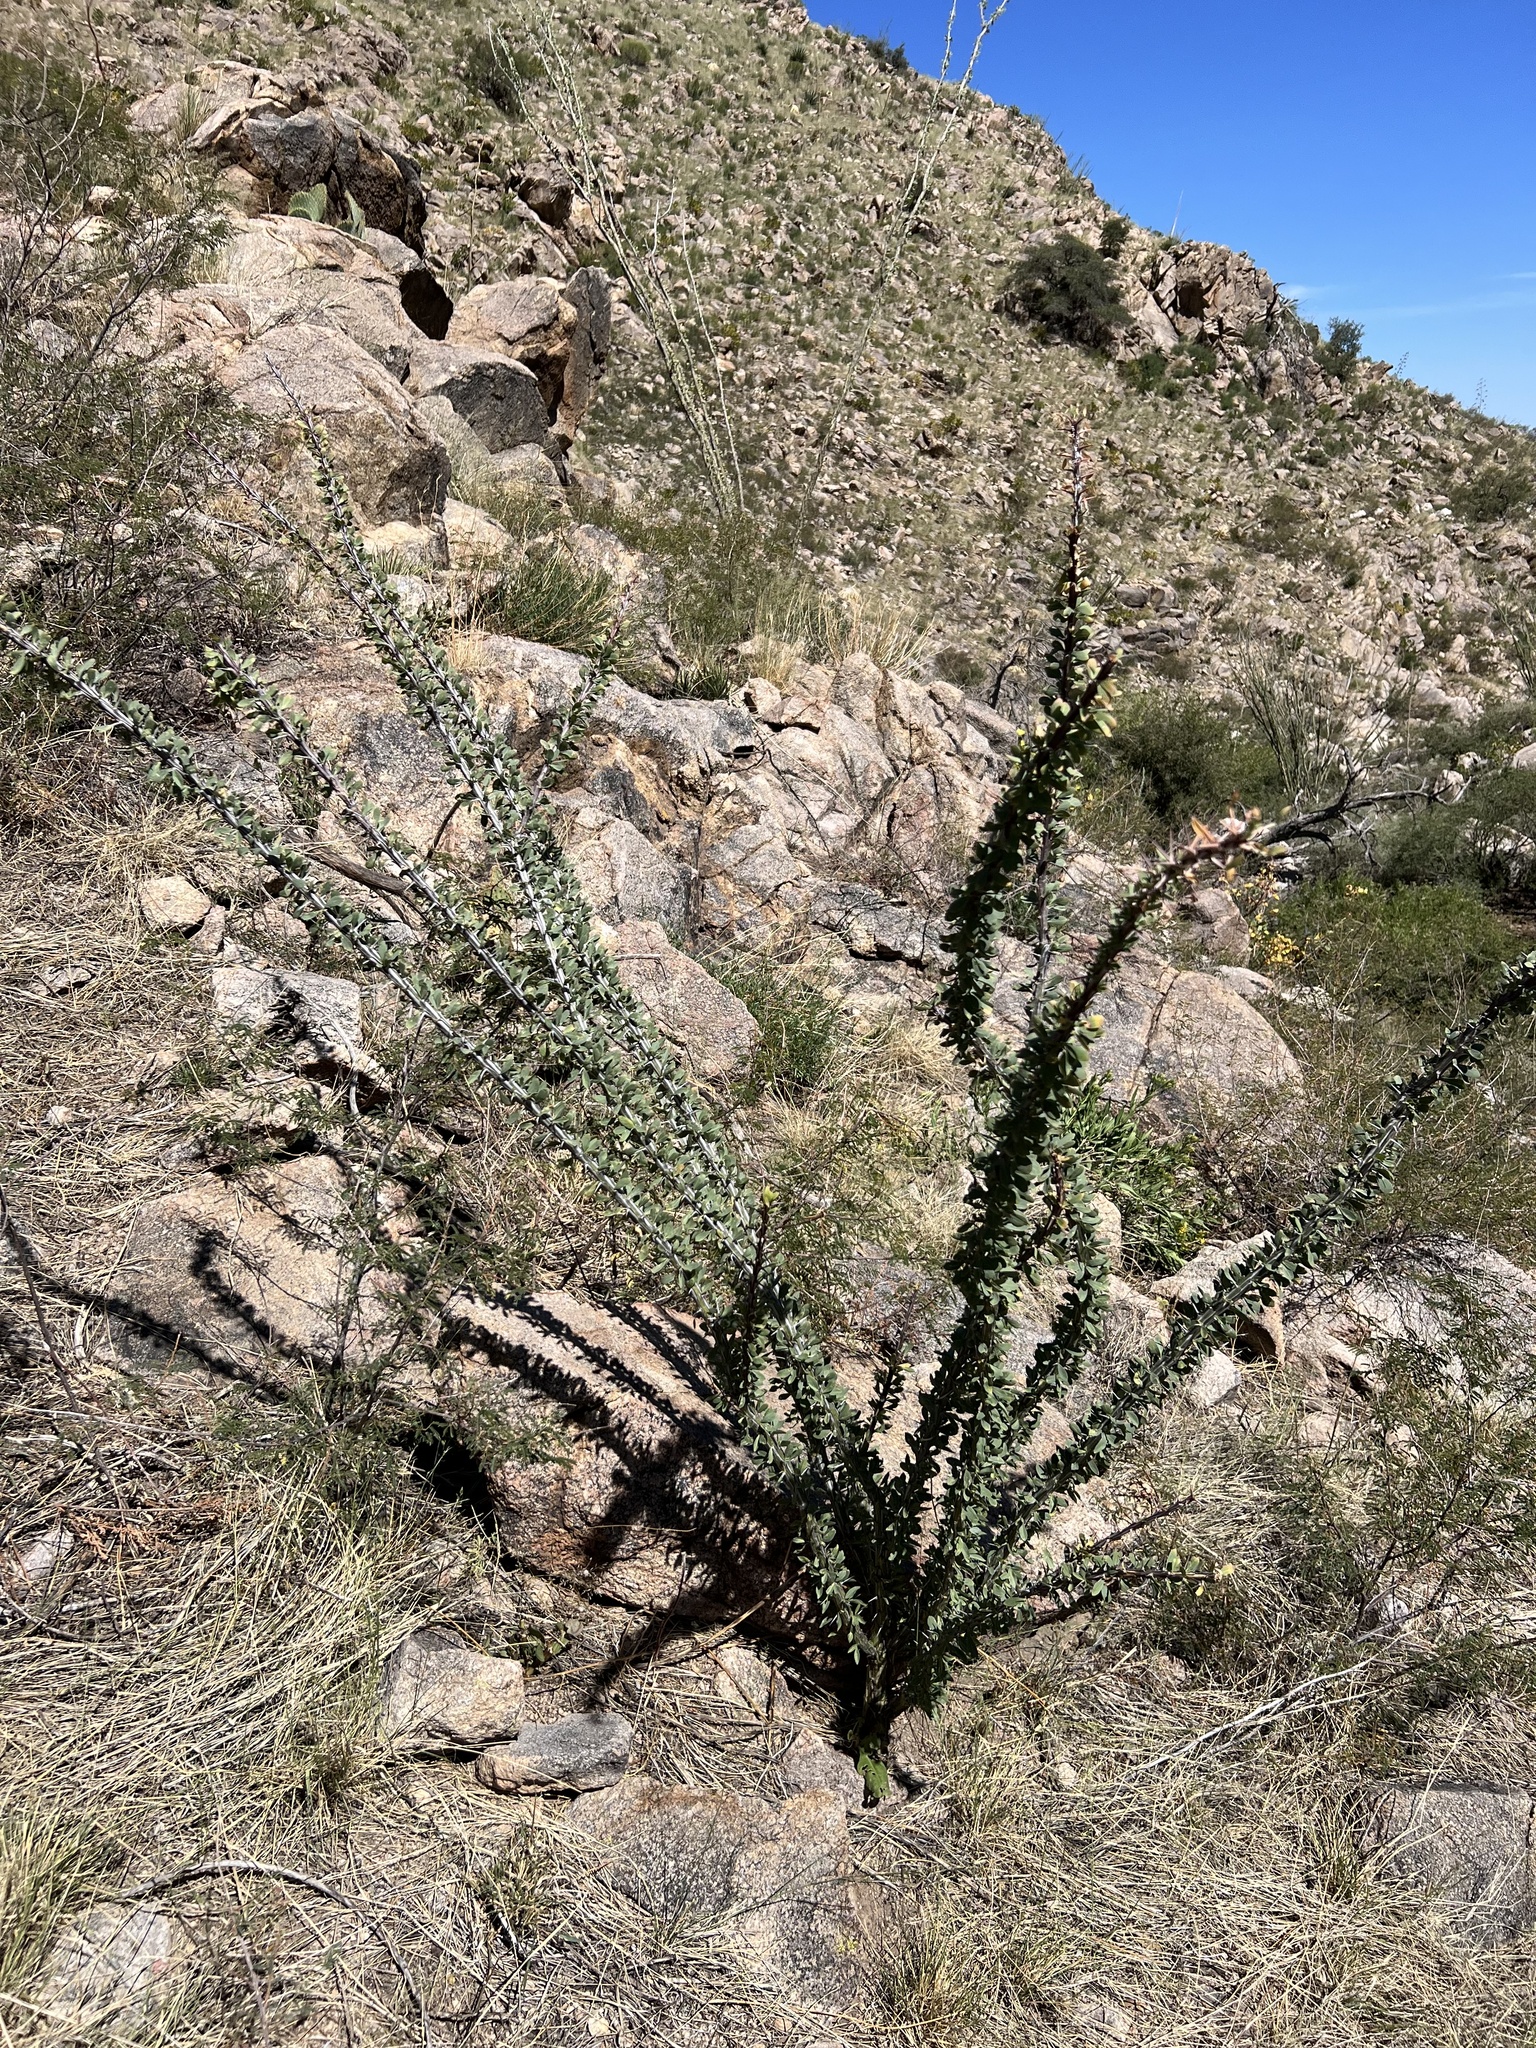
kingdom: Plantae
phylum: Tracheophyta
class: Magnoliopsida
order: Ericales
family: Fouquieriaceae
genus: Fouquieria
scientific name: Fouquieria splendens
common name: Vine-cactus
